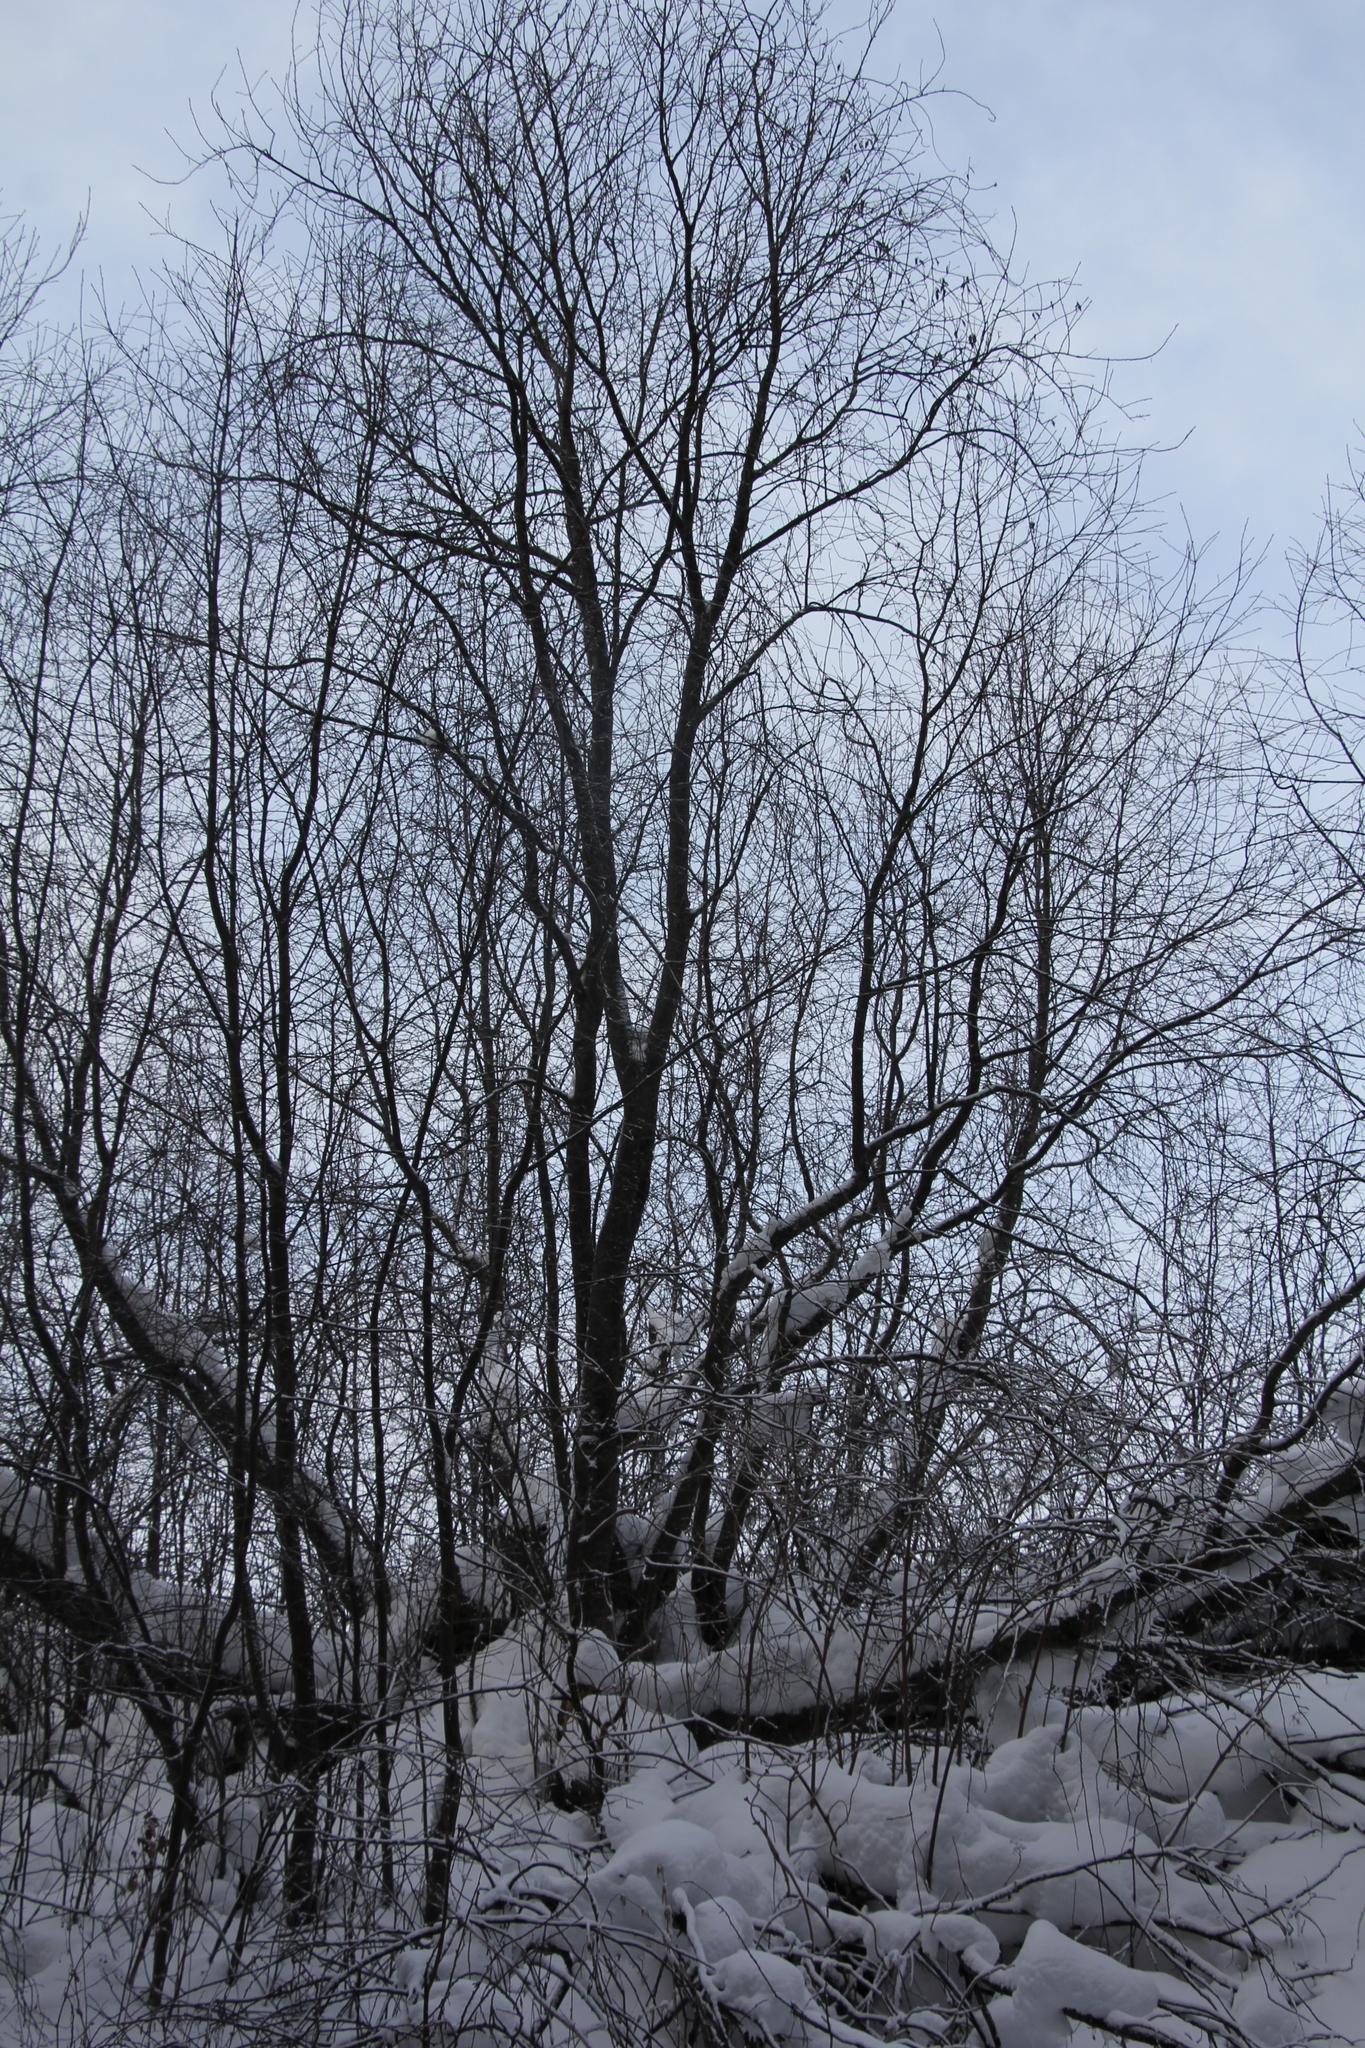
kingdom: Plantae
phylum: Tracheophyta
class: Magnoliopsida
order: Rosales
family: Rosaceae
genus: Prunus
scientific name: Prunus padus
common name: Bird cherry
